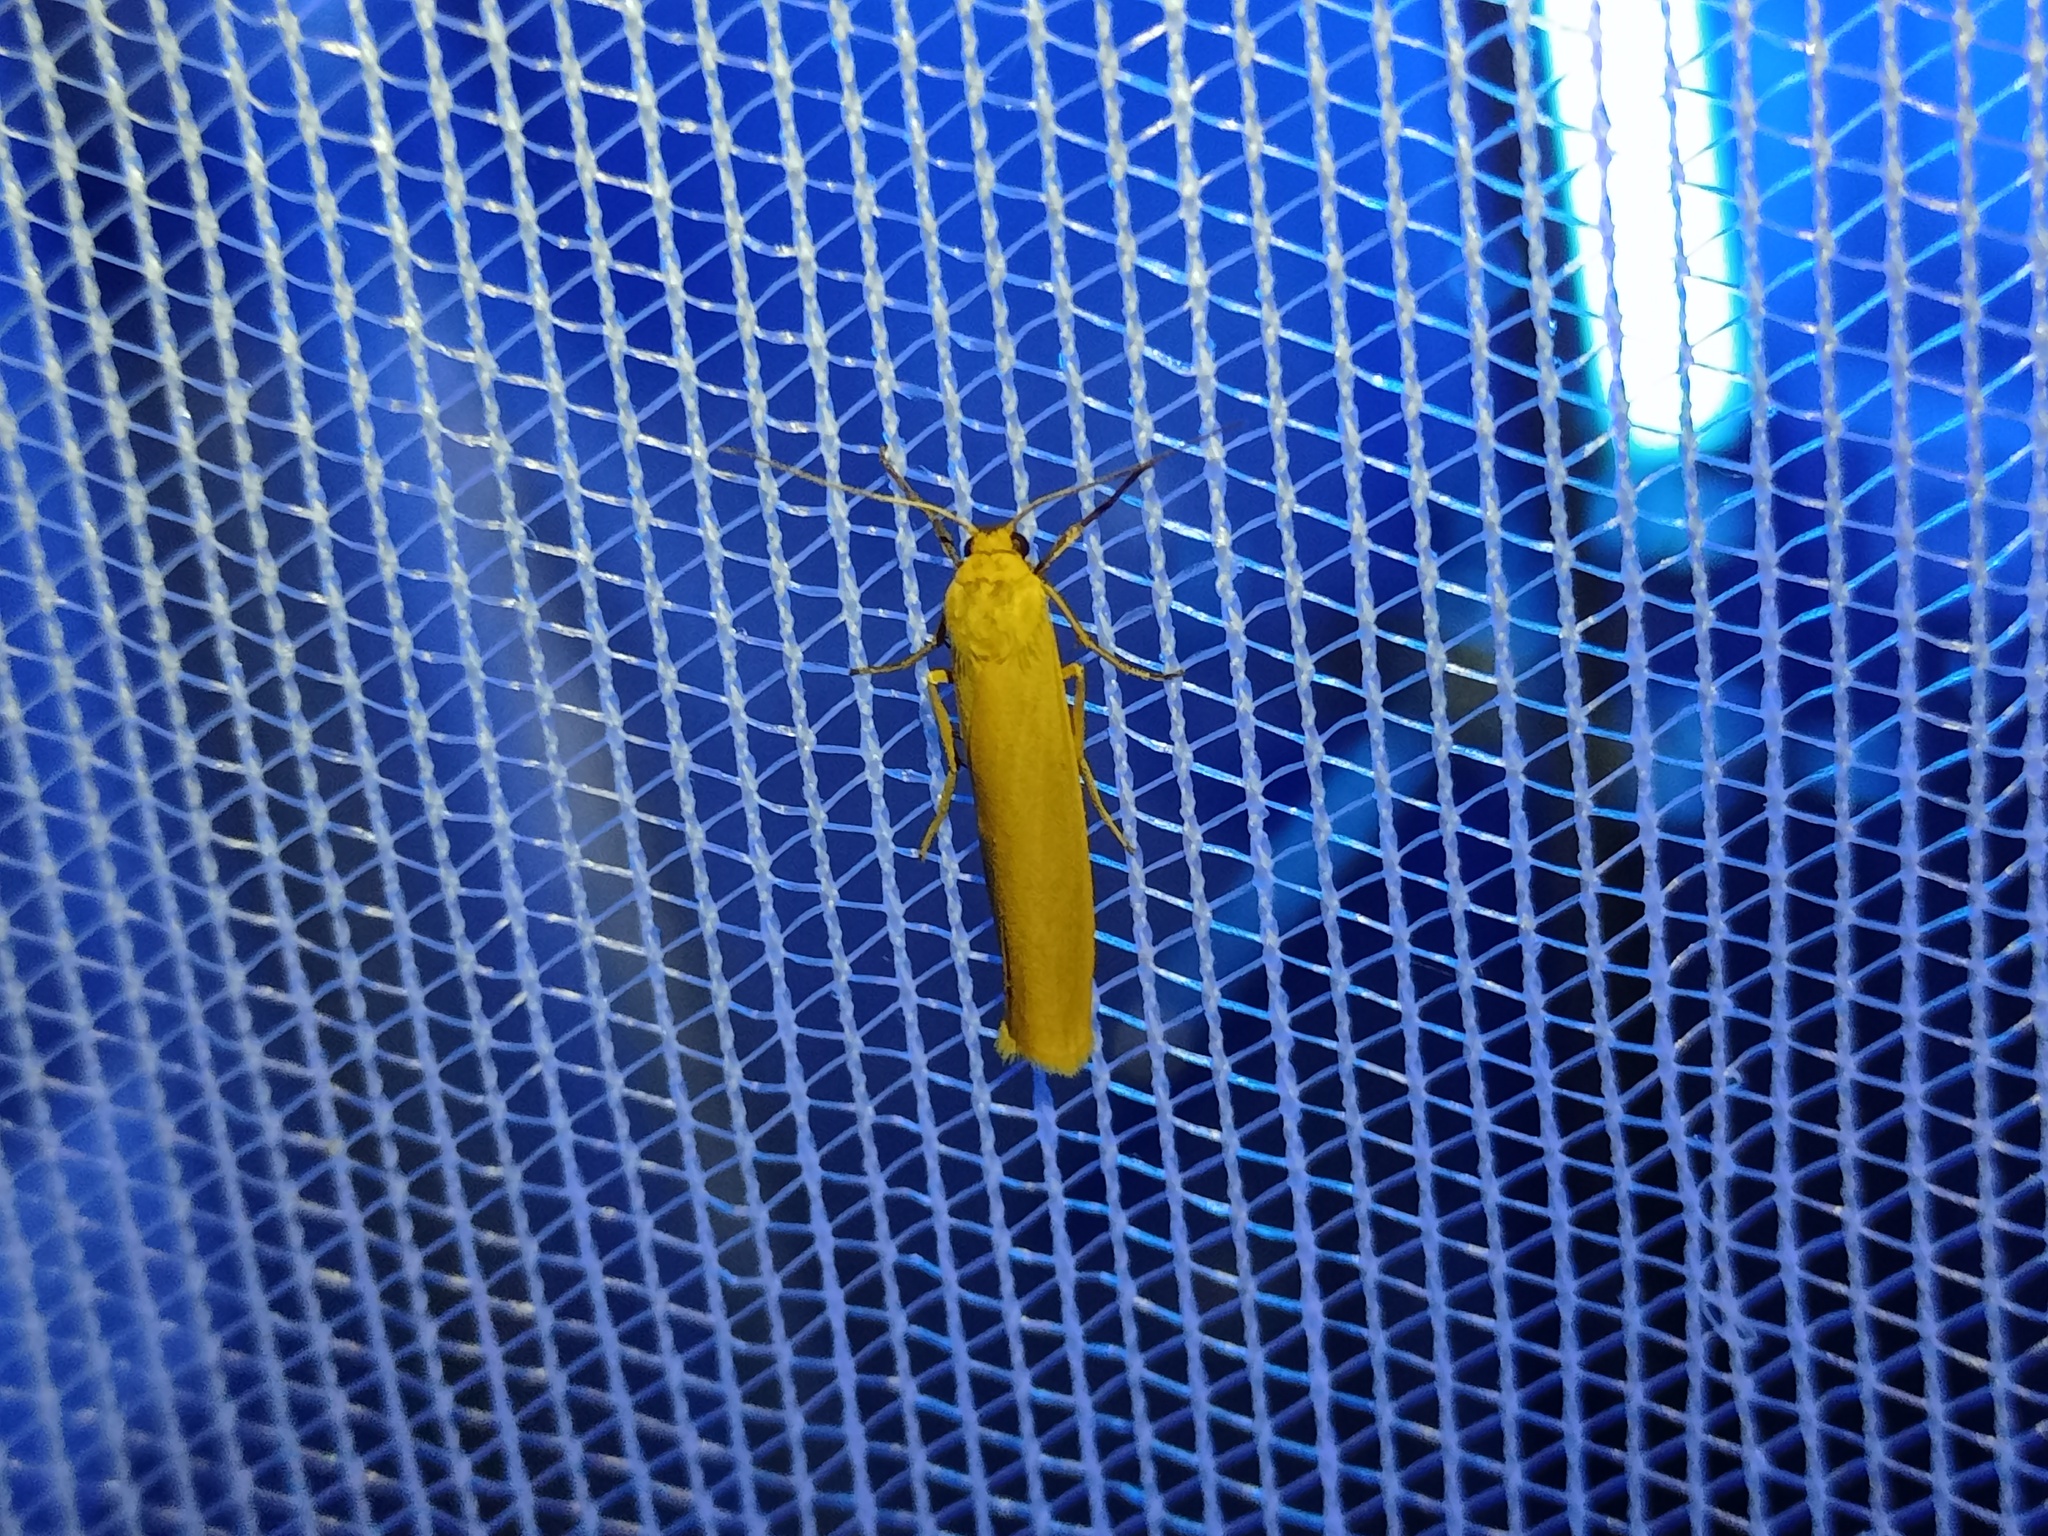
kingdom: Animalia
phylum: Arthropoda
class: Insecta
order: Lepidoptera
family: Erebidae
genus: Indalia
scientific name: Indalia lutarella
